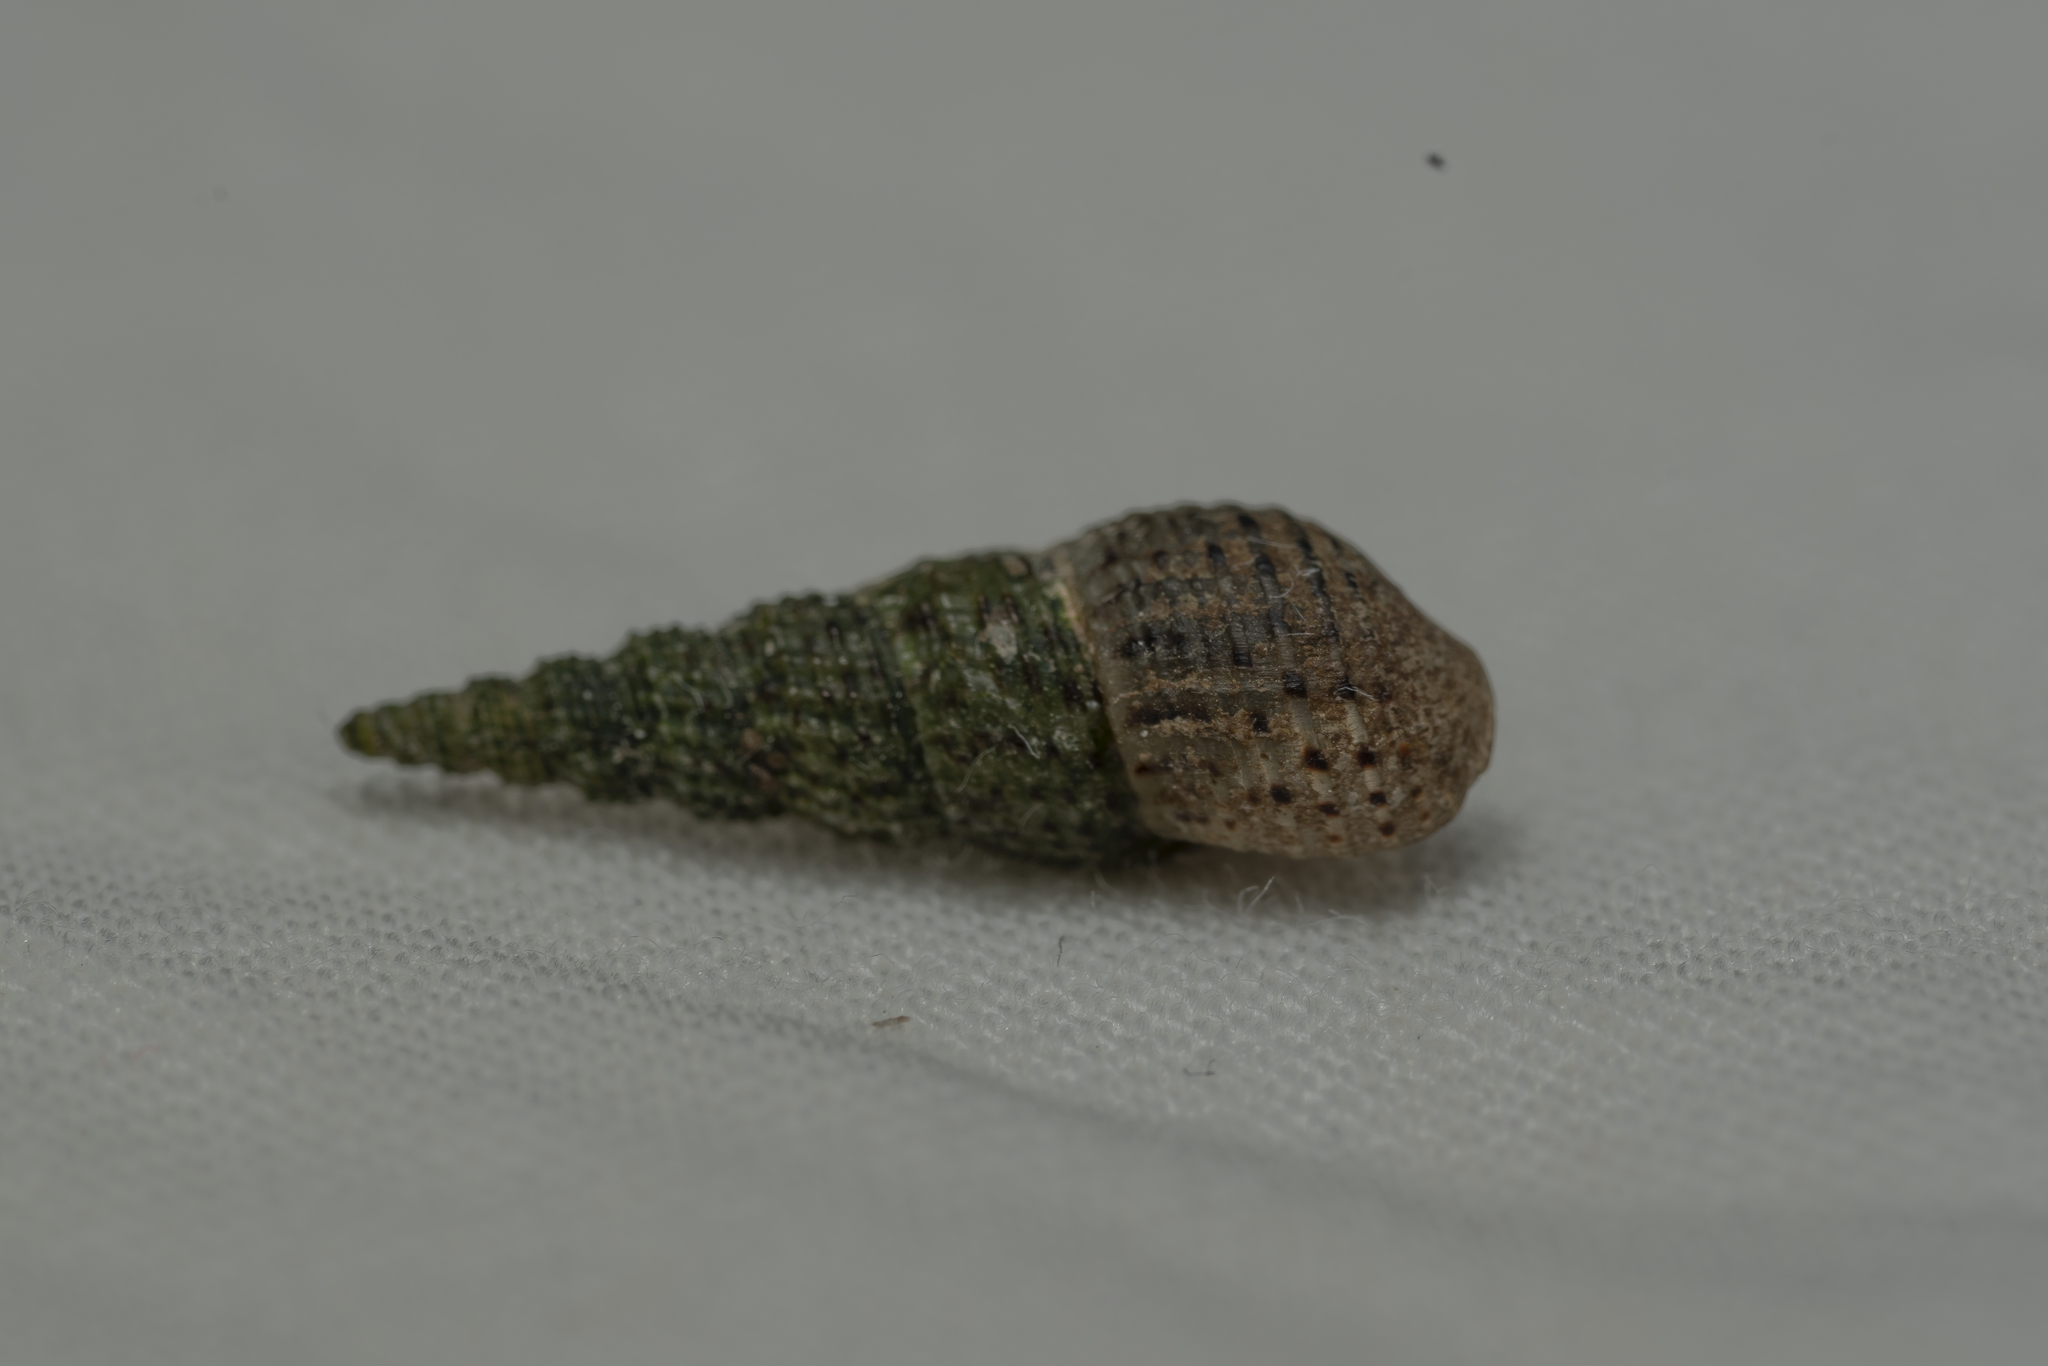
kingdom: Animalia
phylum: Mollusca
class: Gastropoda
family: Thiaridae
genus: Melanoides
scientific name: Melanoides tuberculata
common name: Red-rim melania
